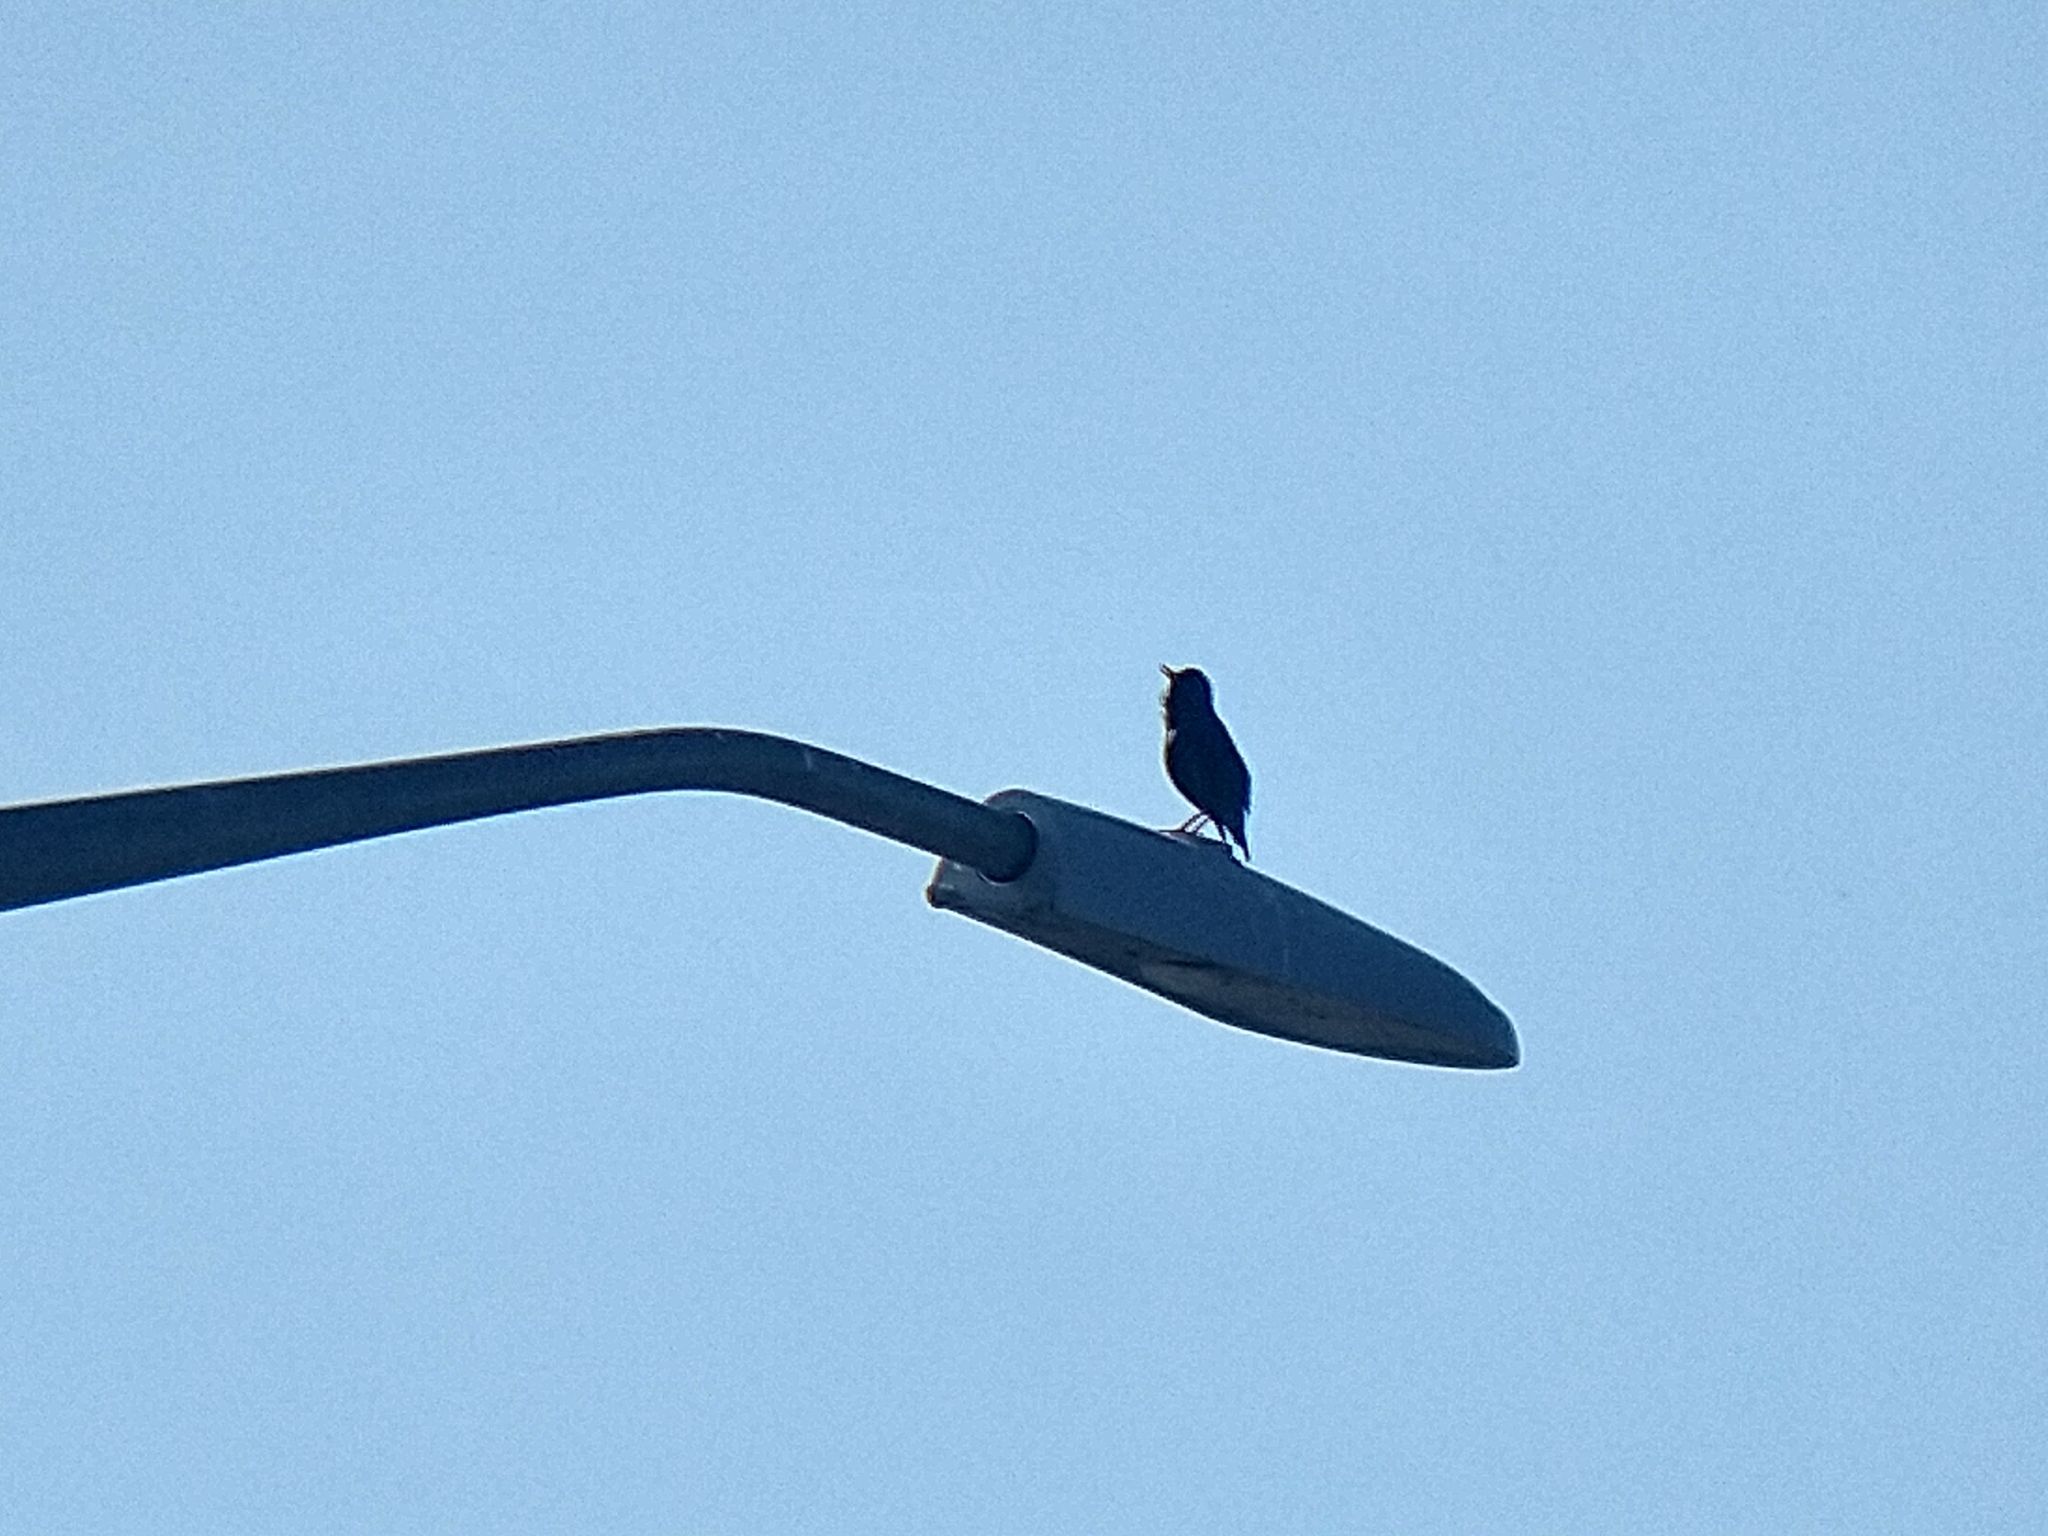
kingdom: Animalia
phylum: Chordata
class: Aves
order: Passeriformes
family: Sturnidae
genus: Sturnus
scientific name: Sturnus vulgaris
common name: Common starling
